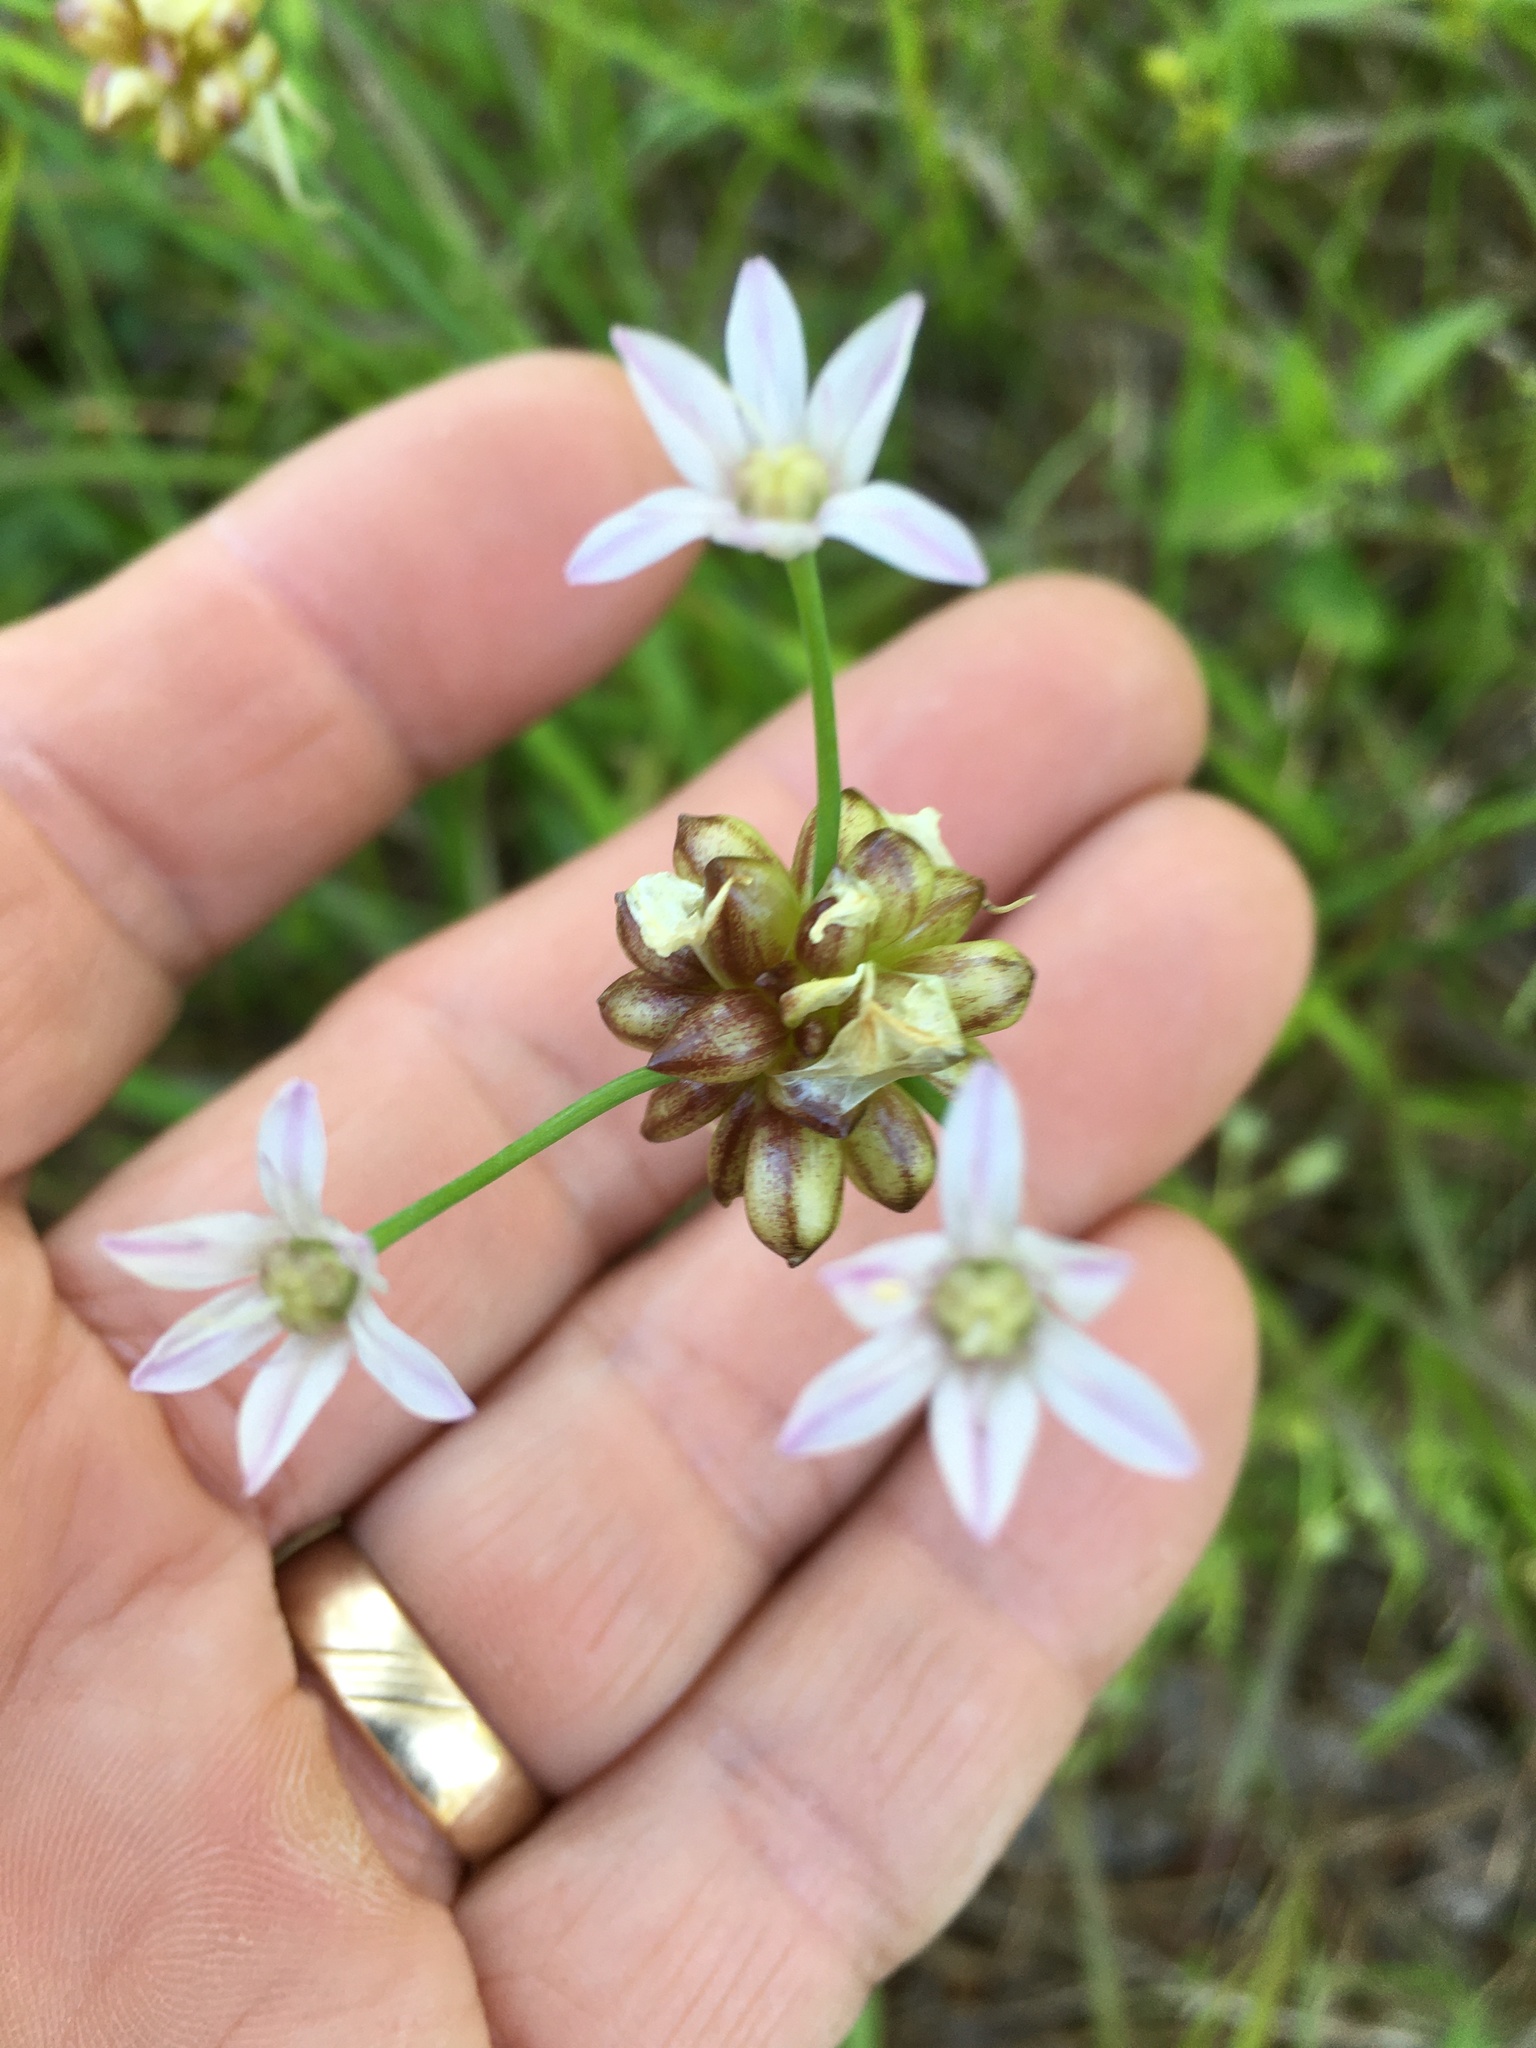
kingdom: Plantae
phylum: Tracheophyta
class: Liliopsida
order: Asparagales
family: Amaryllidaceae
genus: Allium
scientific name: Allium canadense
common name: Meadow garlic
